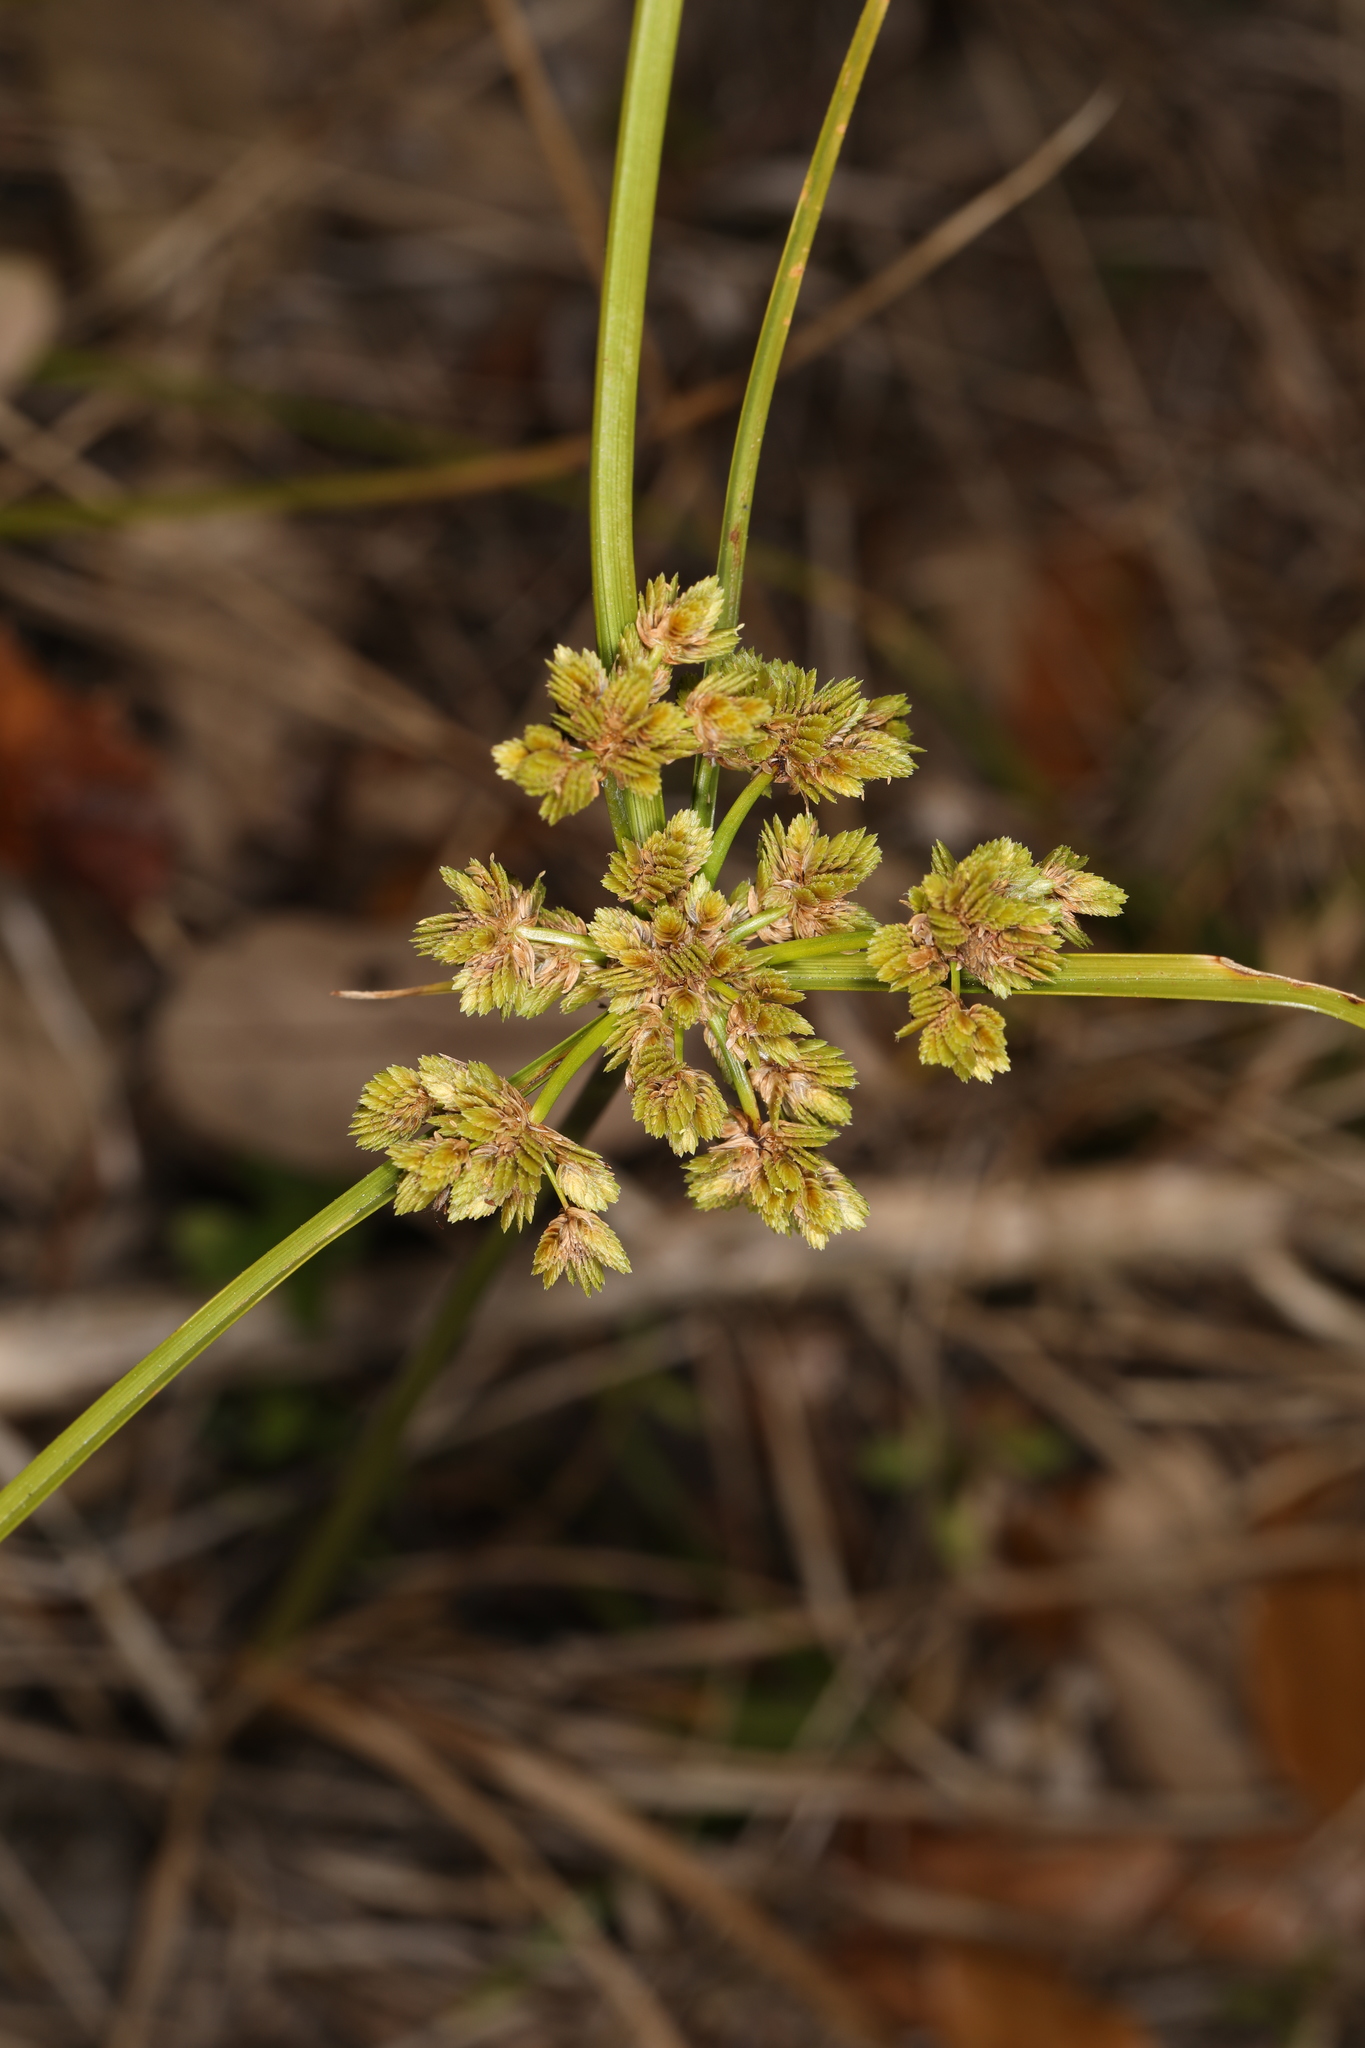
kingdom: Plantae
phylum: Tracheophyta
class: Liliopsida
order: Poales
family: Cyperaceae
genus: Cyperus
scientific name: Cyperus surinamensis
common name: Tropical flat sedge
